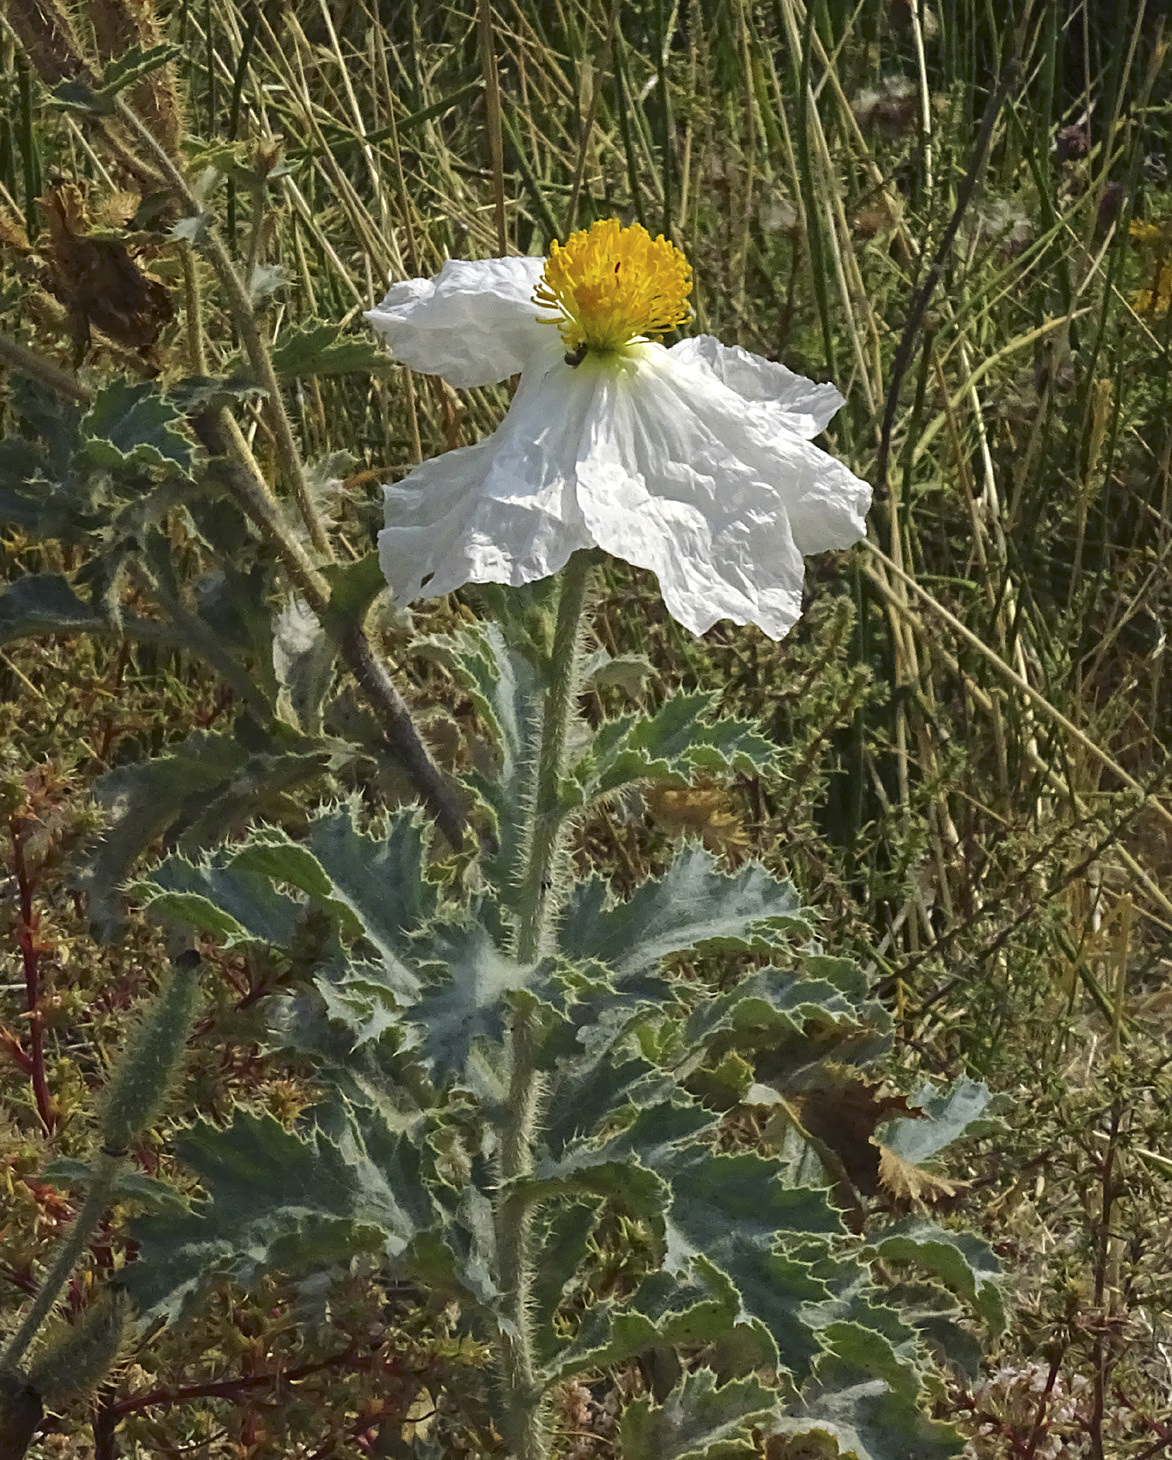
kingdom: Plantae
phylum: Tracheophyta
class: Magnoliopsida
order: Ranunculales
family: Papaveraceae
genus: Argemone
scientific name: Argemone munita
